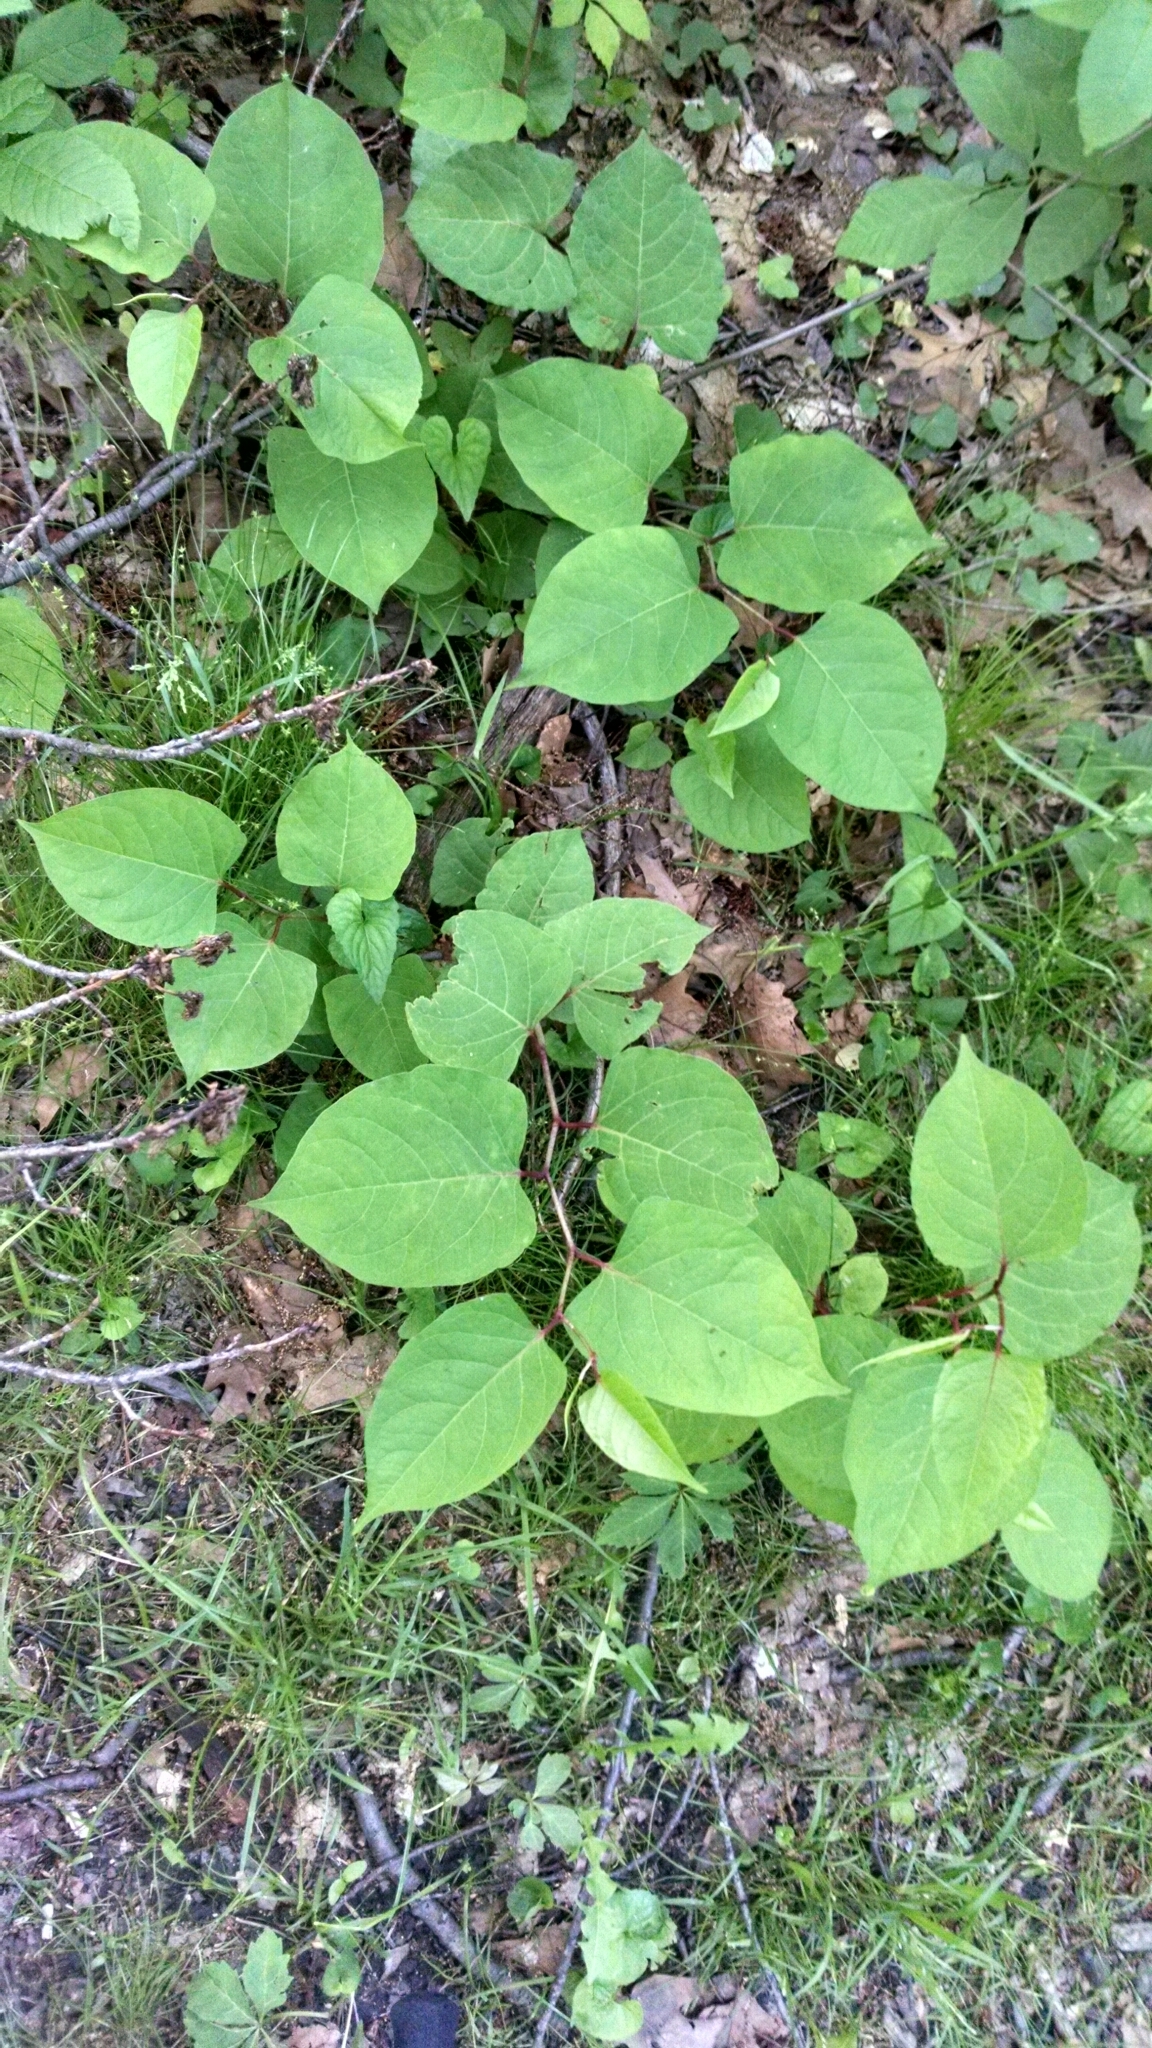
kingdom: Plantae
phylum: Tracheophyta
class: Magnoliopsida
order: Caryophyllales
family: Polygonaceae
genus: Reynoutria
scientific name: Reynoutria japonica
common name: Japanese knotweed
